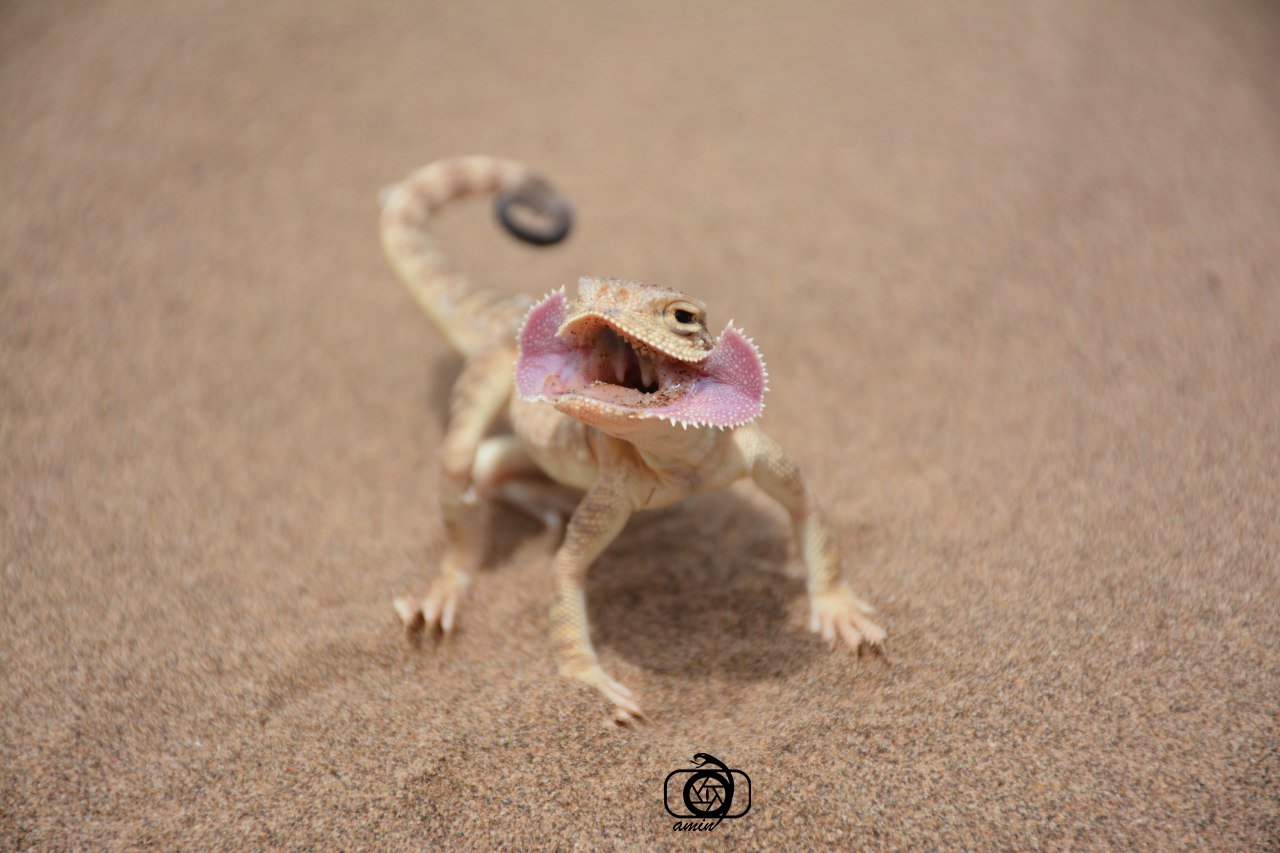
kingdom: Animalia
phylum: Chordata
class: Squamata
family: Agamidae
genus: Phrynocephalus
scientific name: Phrynocephalus mystaceus
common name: Secret toadhead agama
